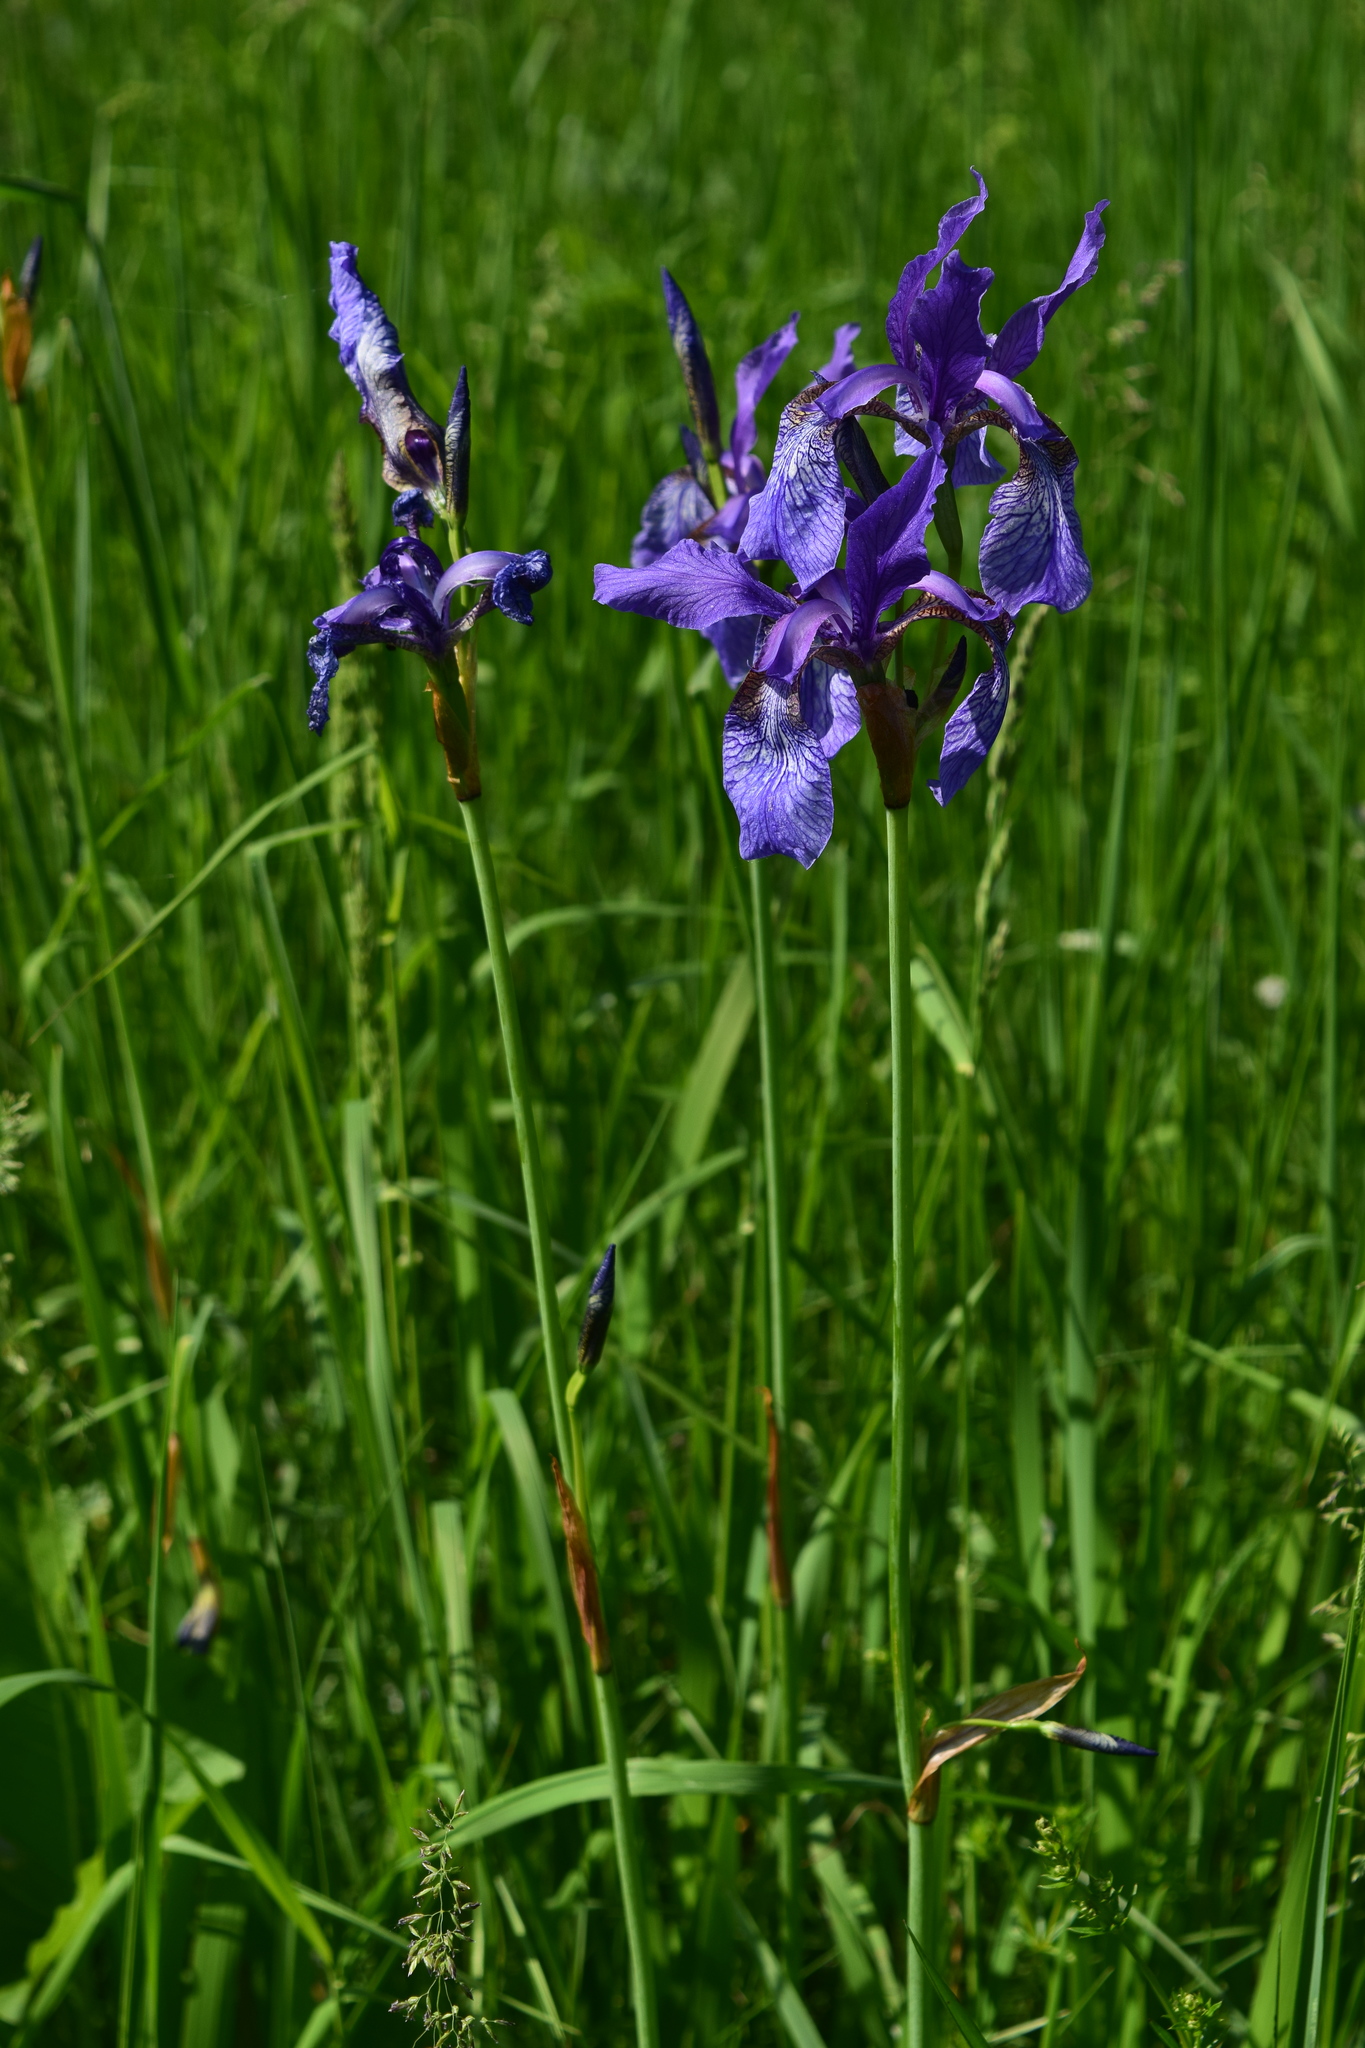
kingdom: Plantae
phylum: Tracheophyta
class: Liliopsida
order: Asparagales
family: Iridaceae
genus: Iris
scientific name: Iris sibirica
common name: Siberian iris
